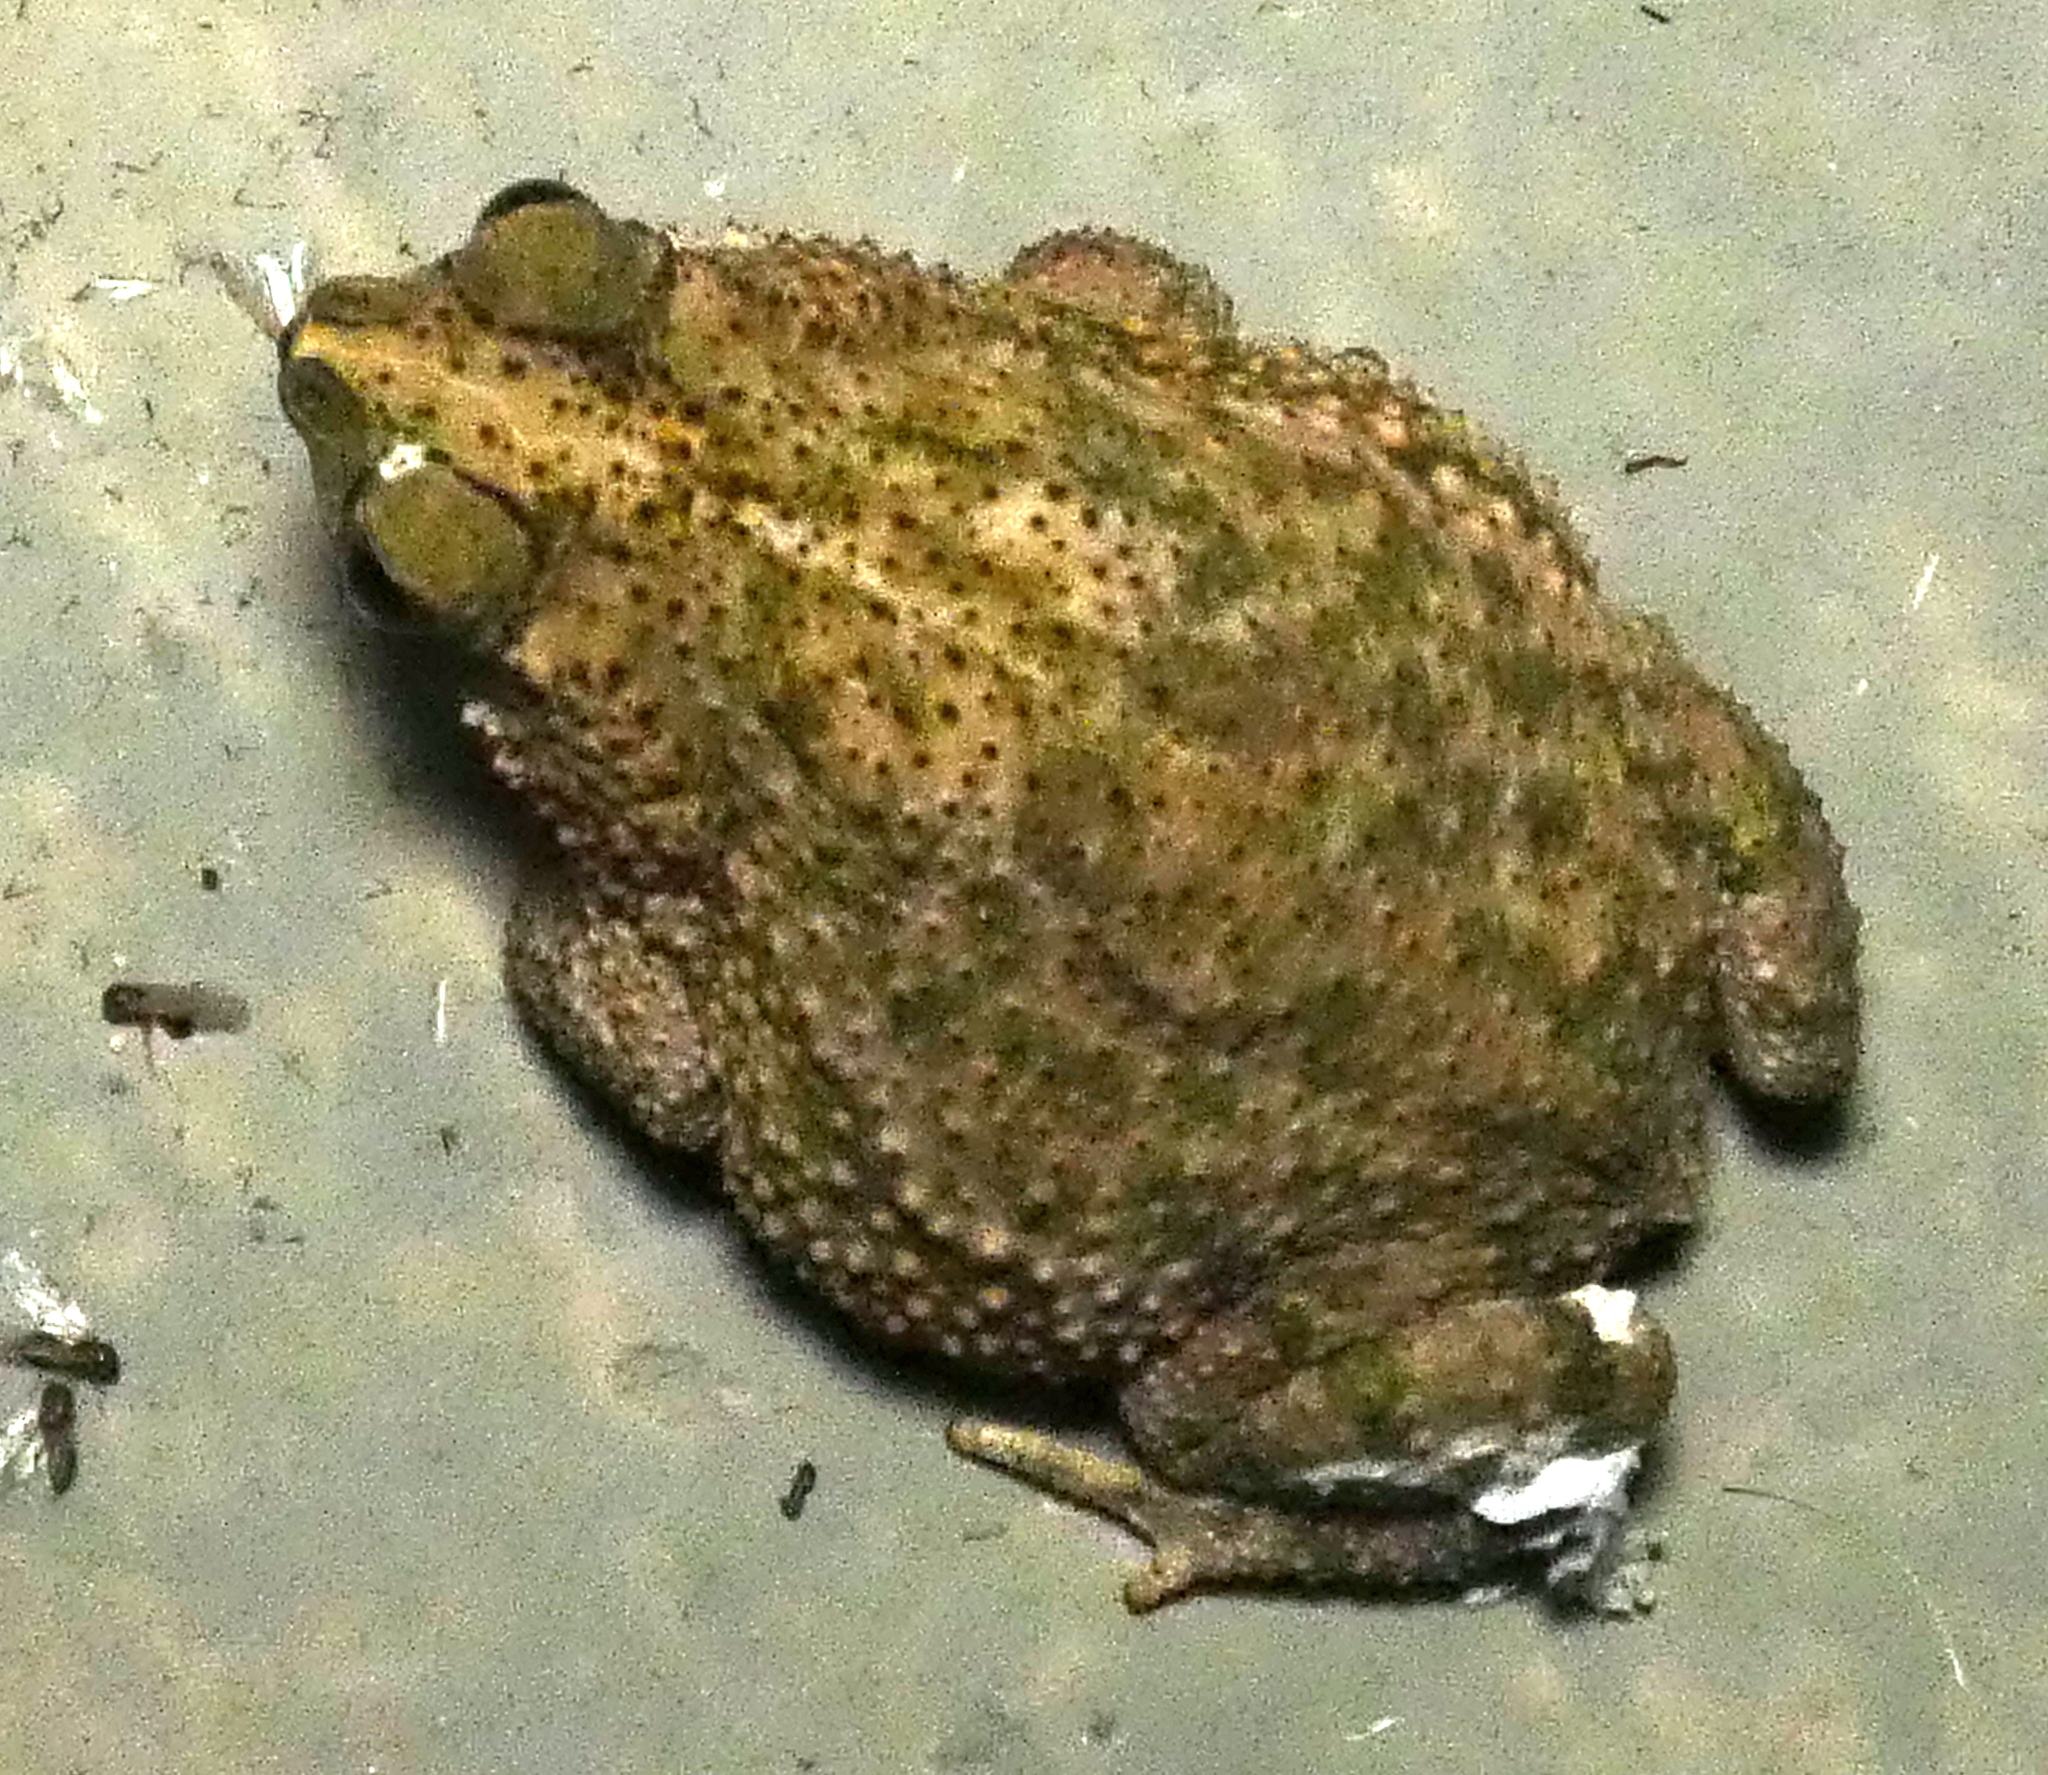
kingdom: Animalia
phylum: Chordata
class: Amphibia
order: Anura
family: Bufonidae
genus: Rhinella
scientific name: Rhinella granulosa
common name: Common lesser toad
